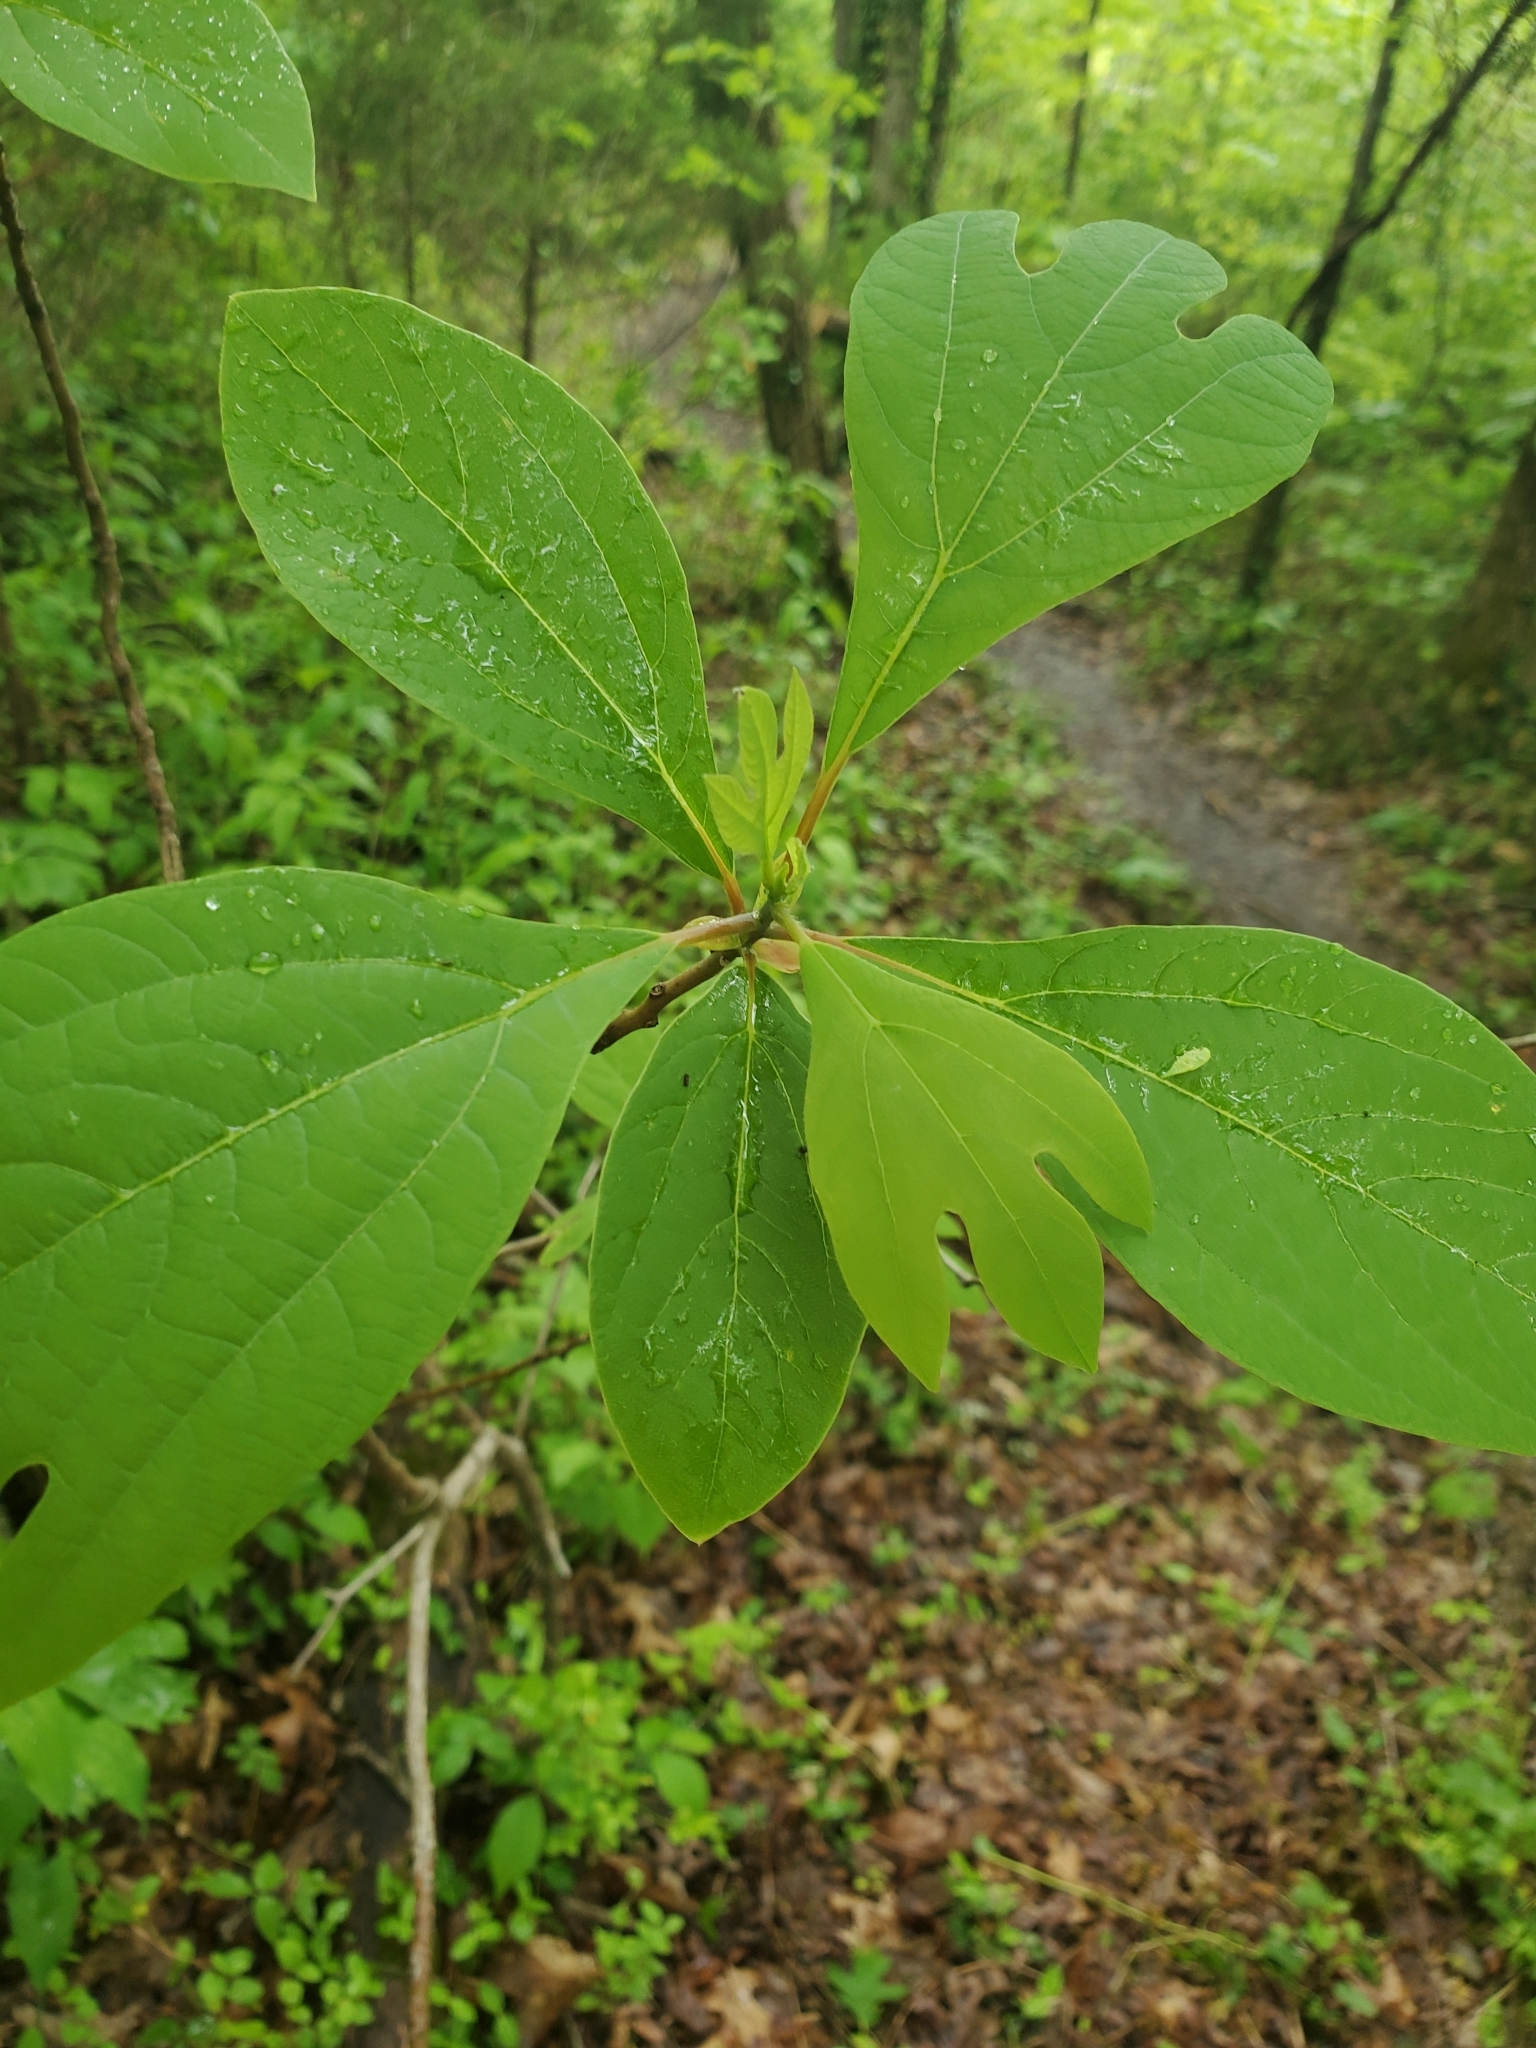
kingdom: Plantae
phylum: Tracheophyta
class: Magnoliopsida
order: Laurales
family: Lauraceae
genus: Sassafras
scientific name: Sassafras albidum
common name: Sassafras
